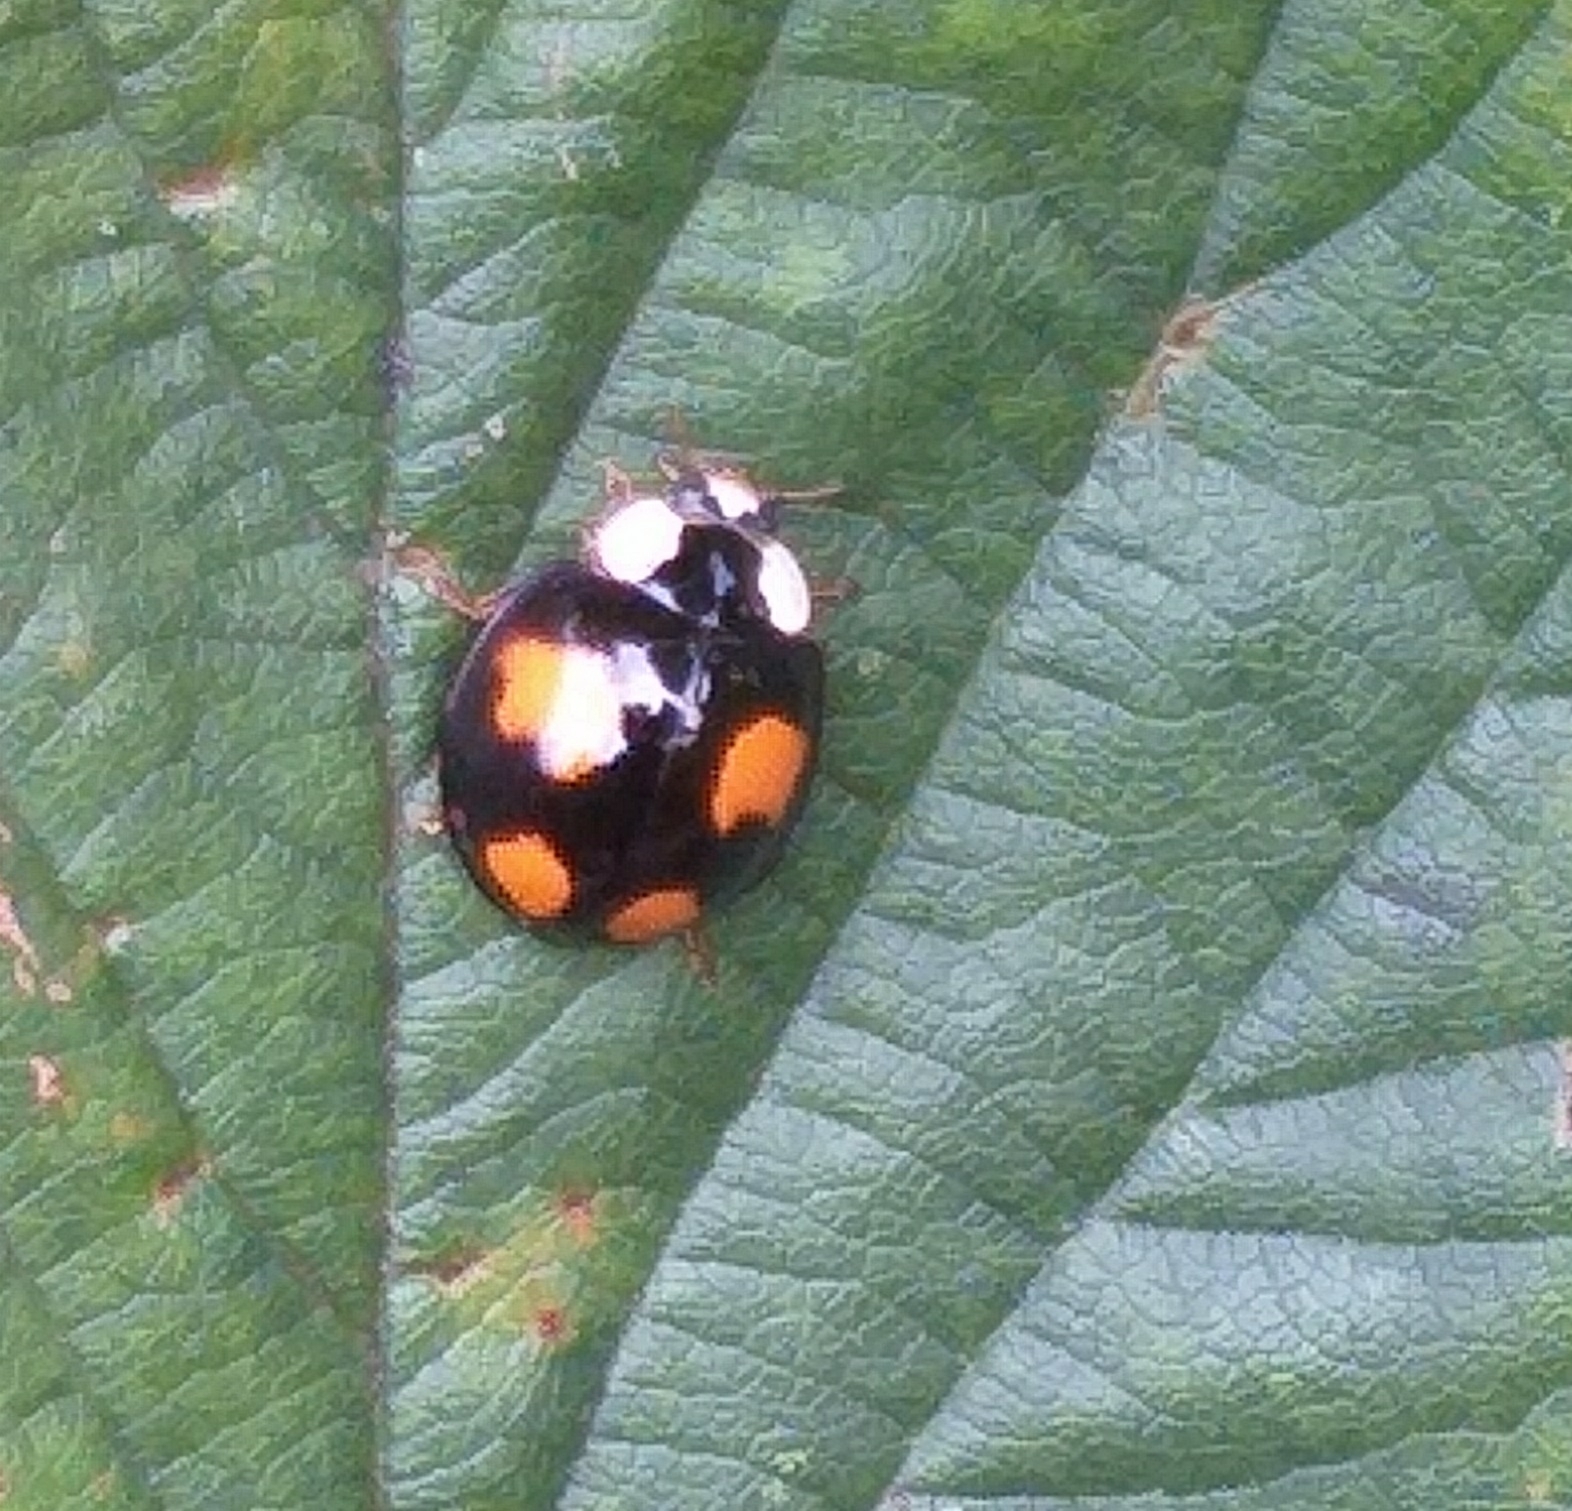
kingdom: Animalia
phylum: Arthropoda
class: Insecta
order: Coleoptera
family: Coccinellidae
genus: Harmonia
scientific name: Harmonia axyridis
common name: Harlequin ladybird
